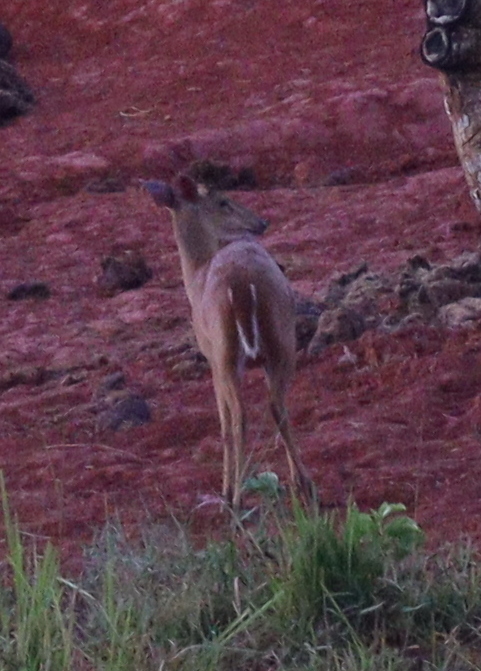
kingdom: Animalia
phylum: Chordata
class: Mammalia
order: Artiodactyla
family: Cervidae
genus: Muntiacus
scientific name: Muntiacus muntjak
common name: Indian muntjac
